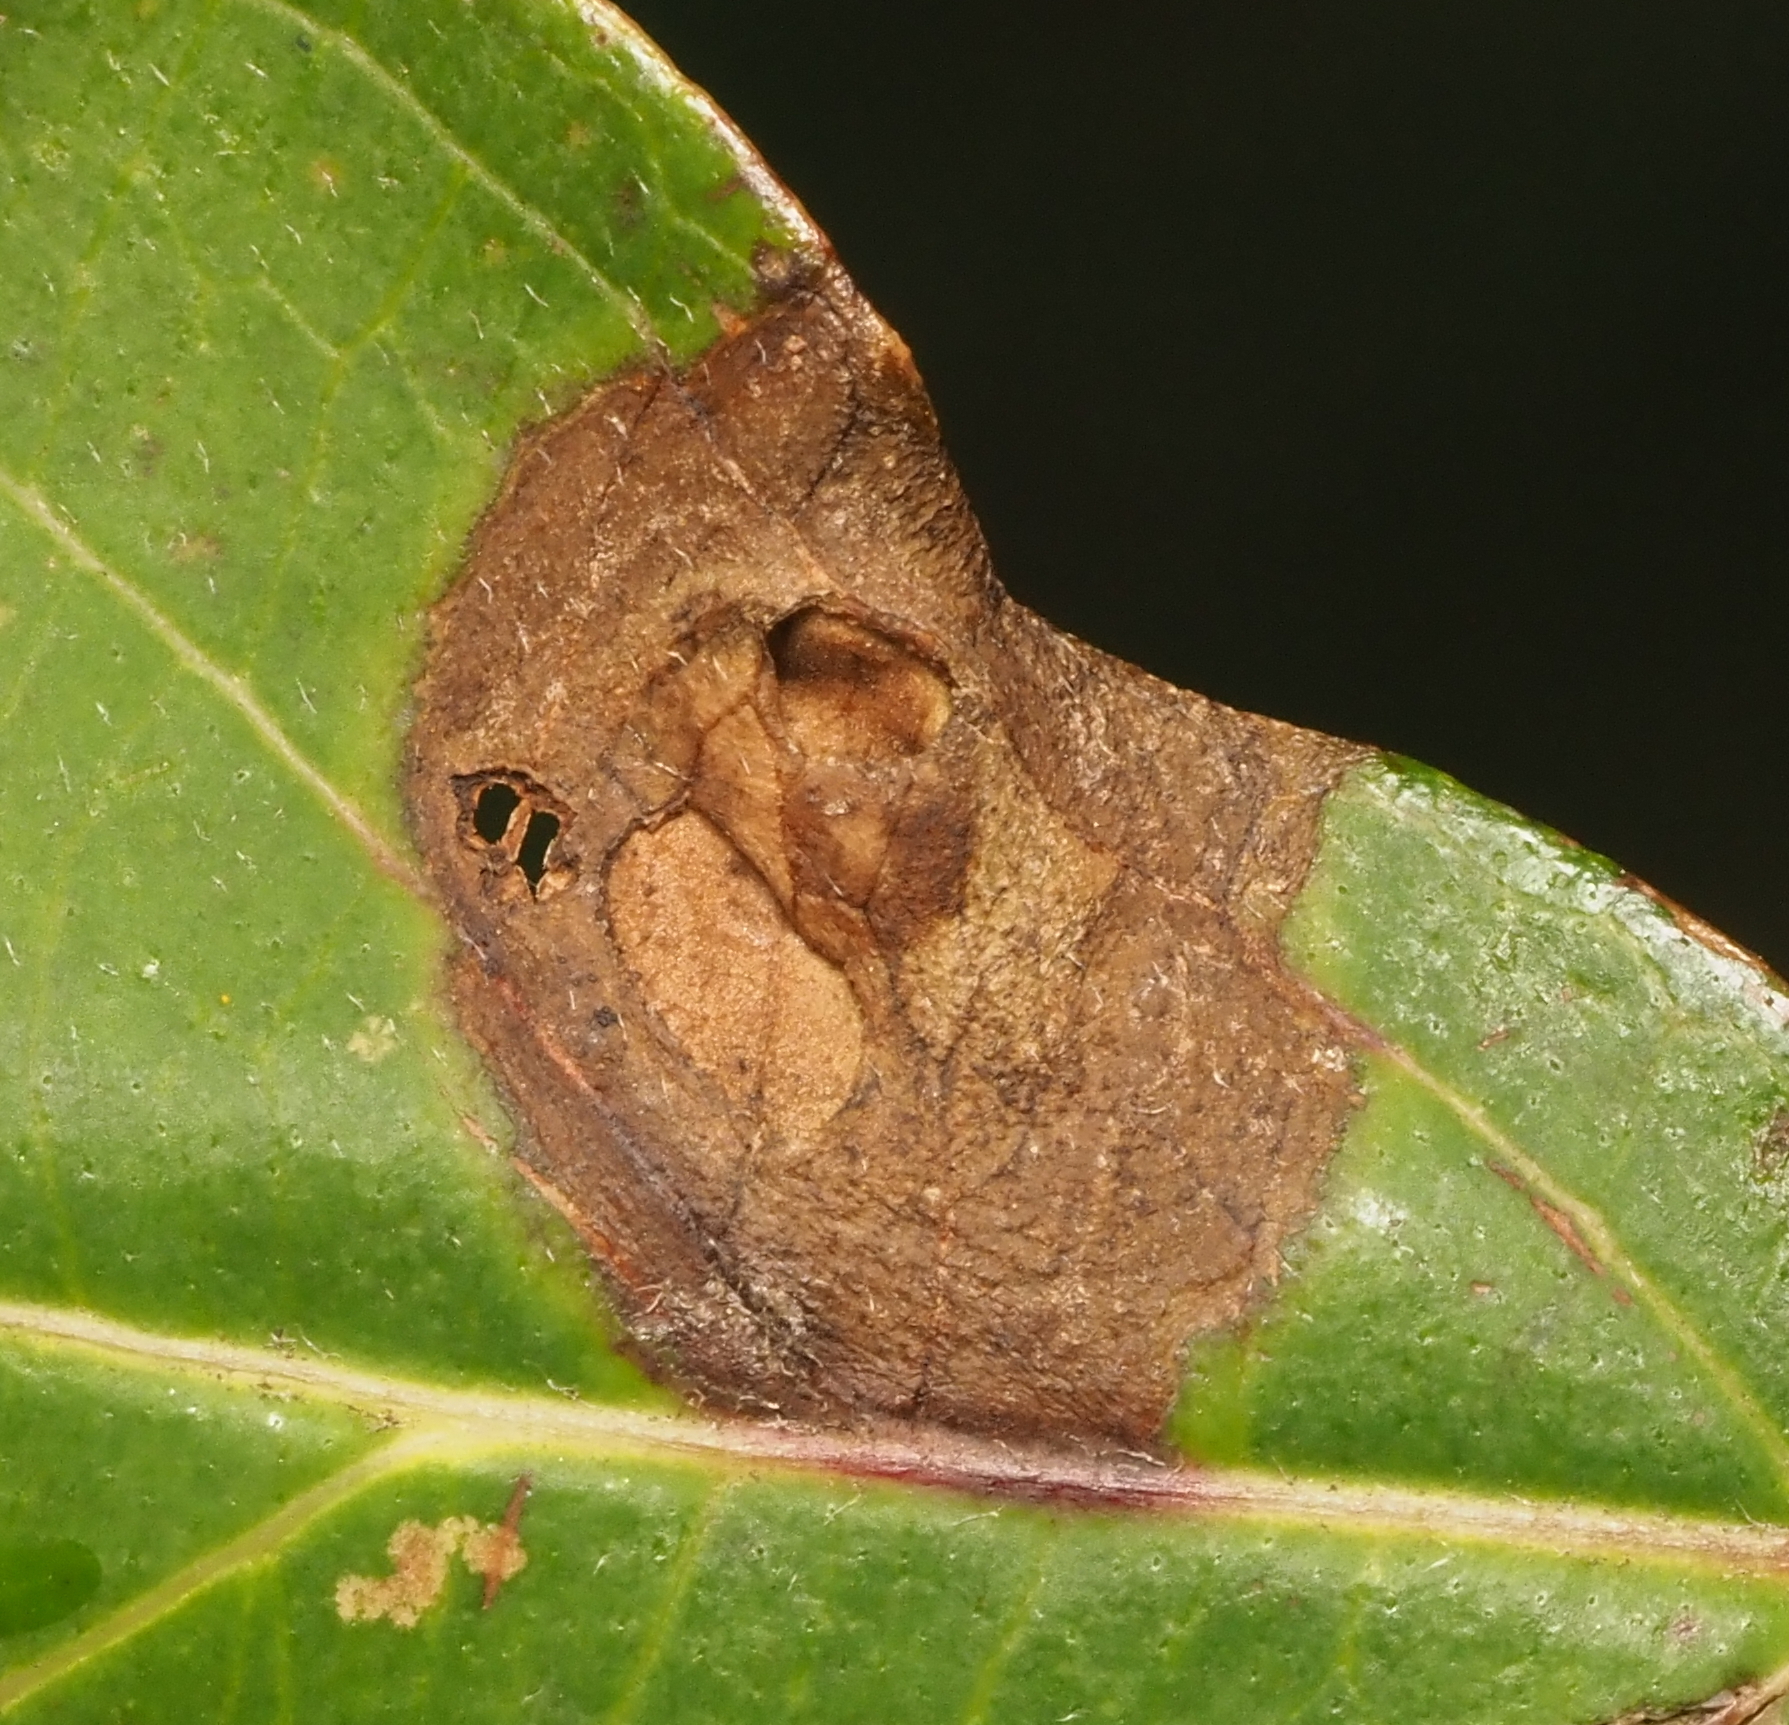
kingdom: Animalia
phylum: Arthropoda
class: Insecta
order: Diptera
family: Cecidomyiidae
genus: Parallelodiplosis
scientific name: Parallelodiplosis subtruncata
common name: Dogwood eyespot gall midge
